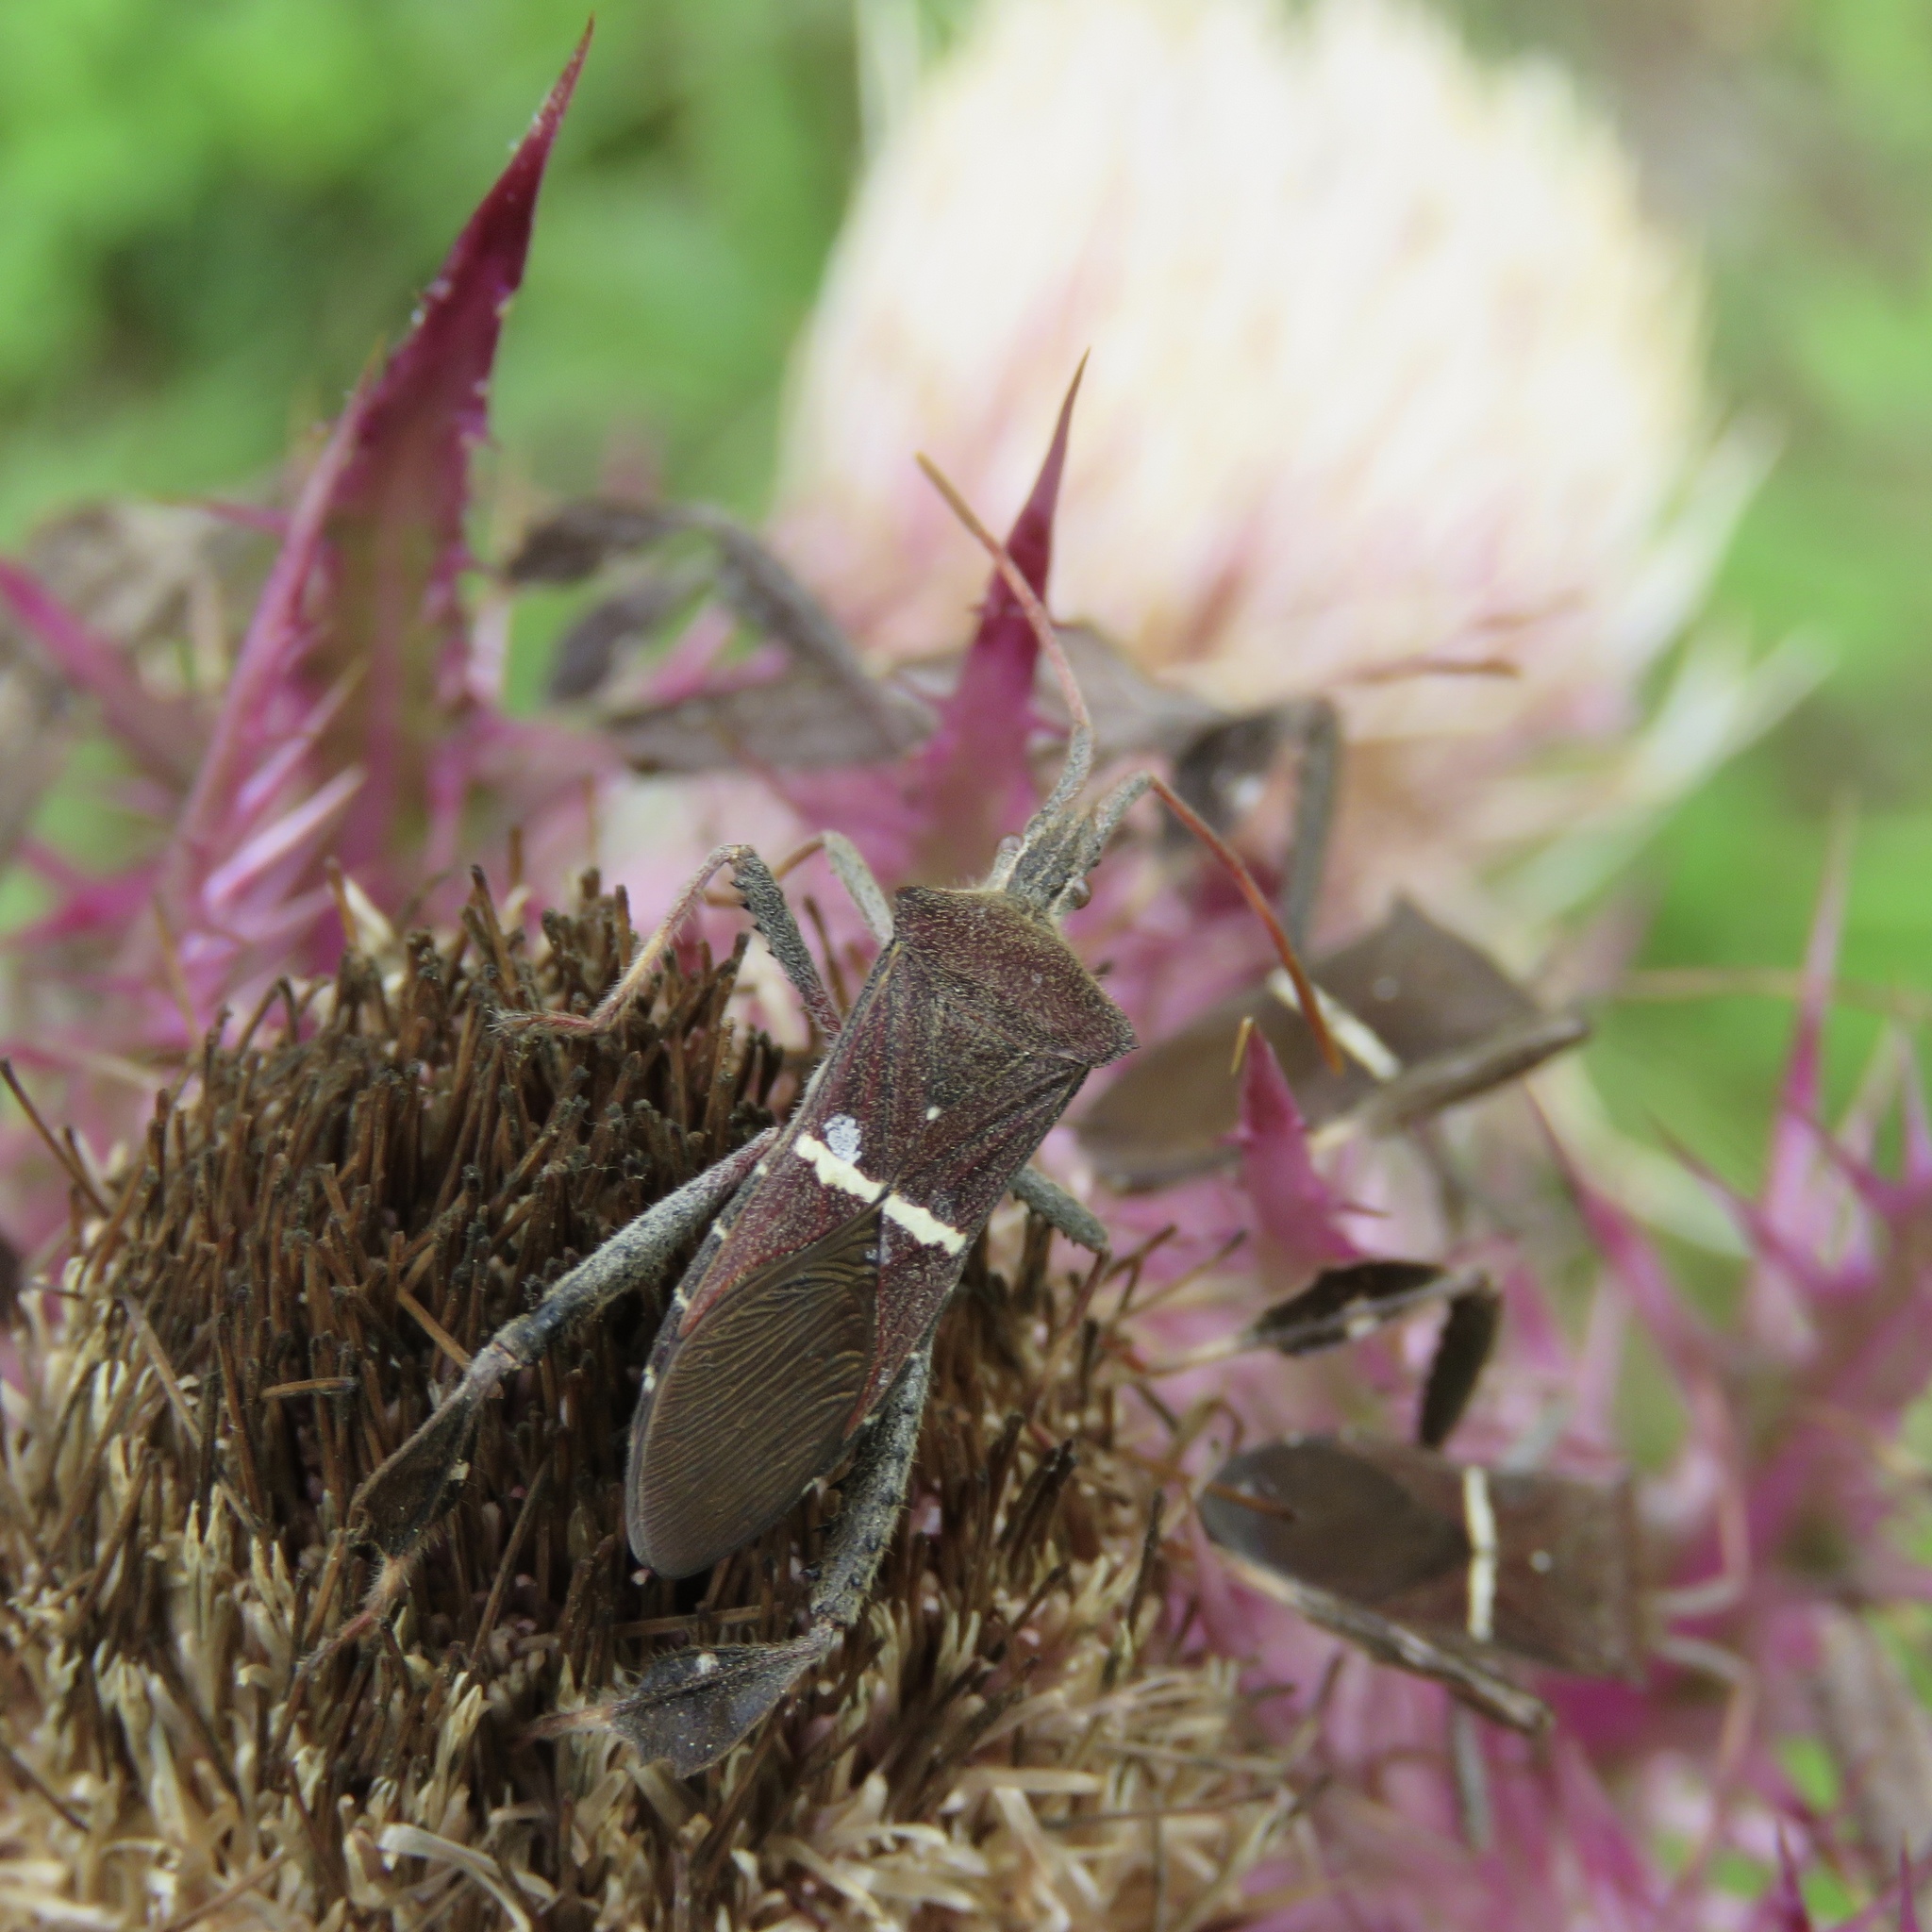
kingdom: Animalia
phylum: Arthropoda
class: Insecta
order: Hemiptera
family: Coreidae
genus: Leptoglossus
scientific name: Leptoglossus phyllopus
